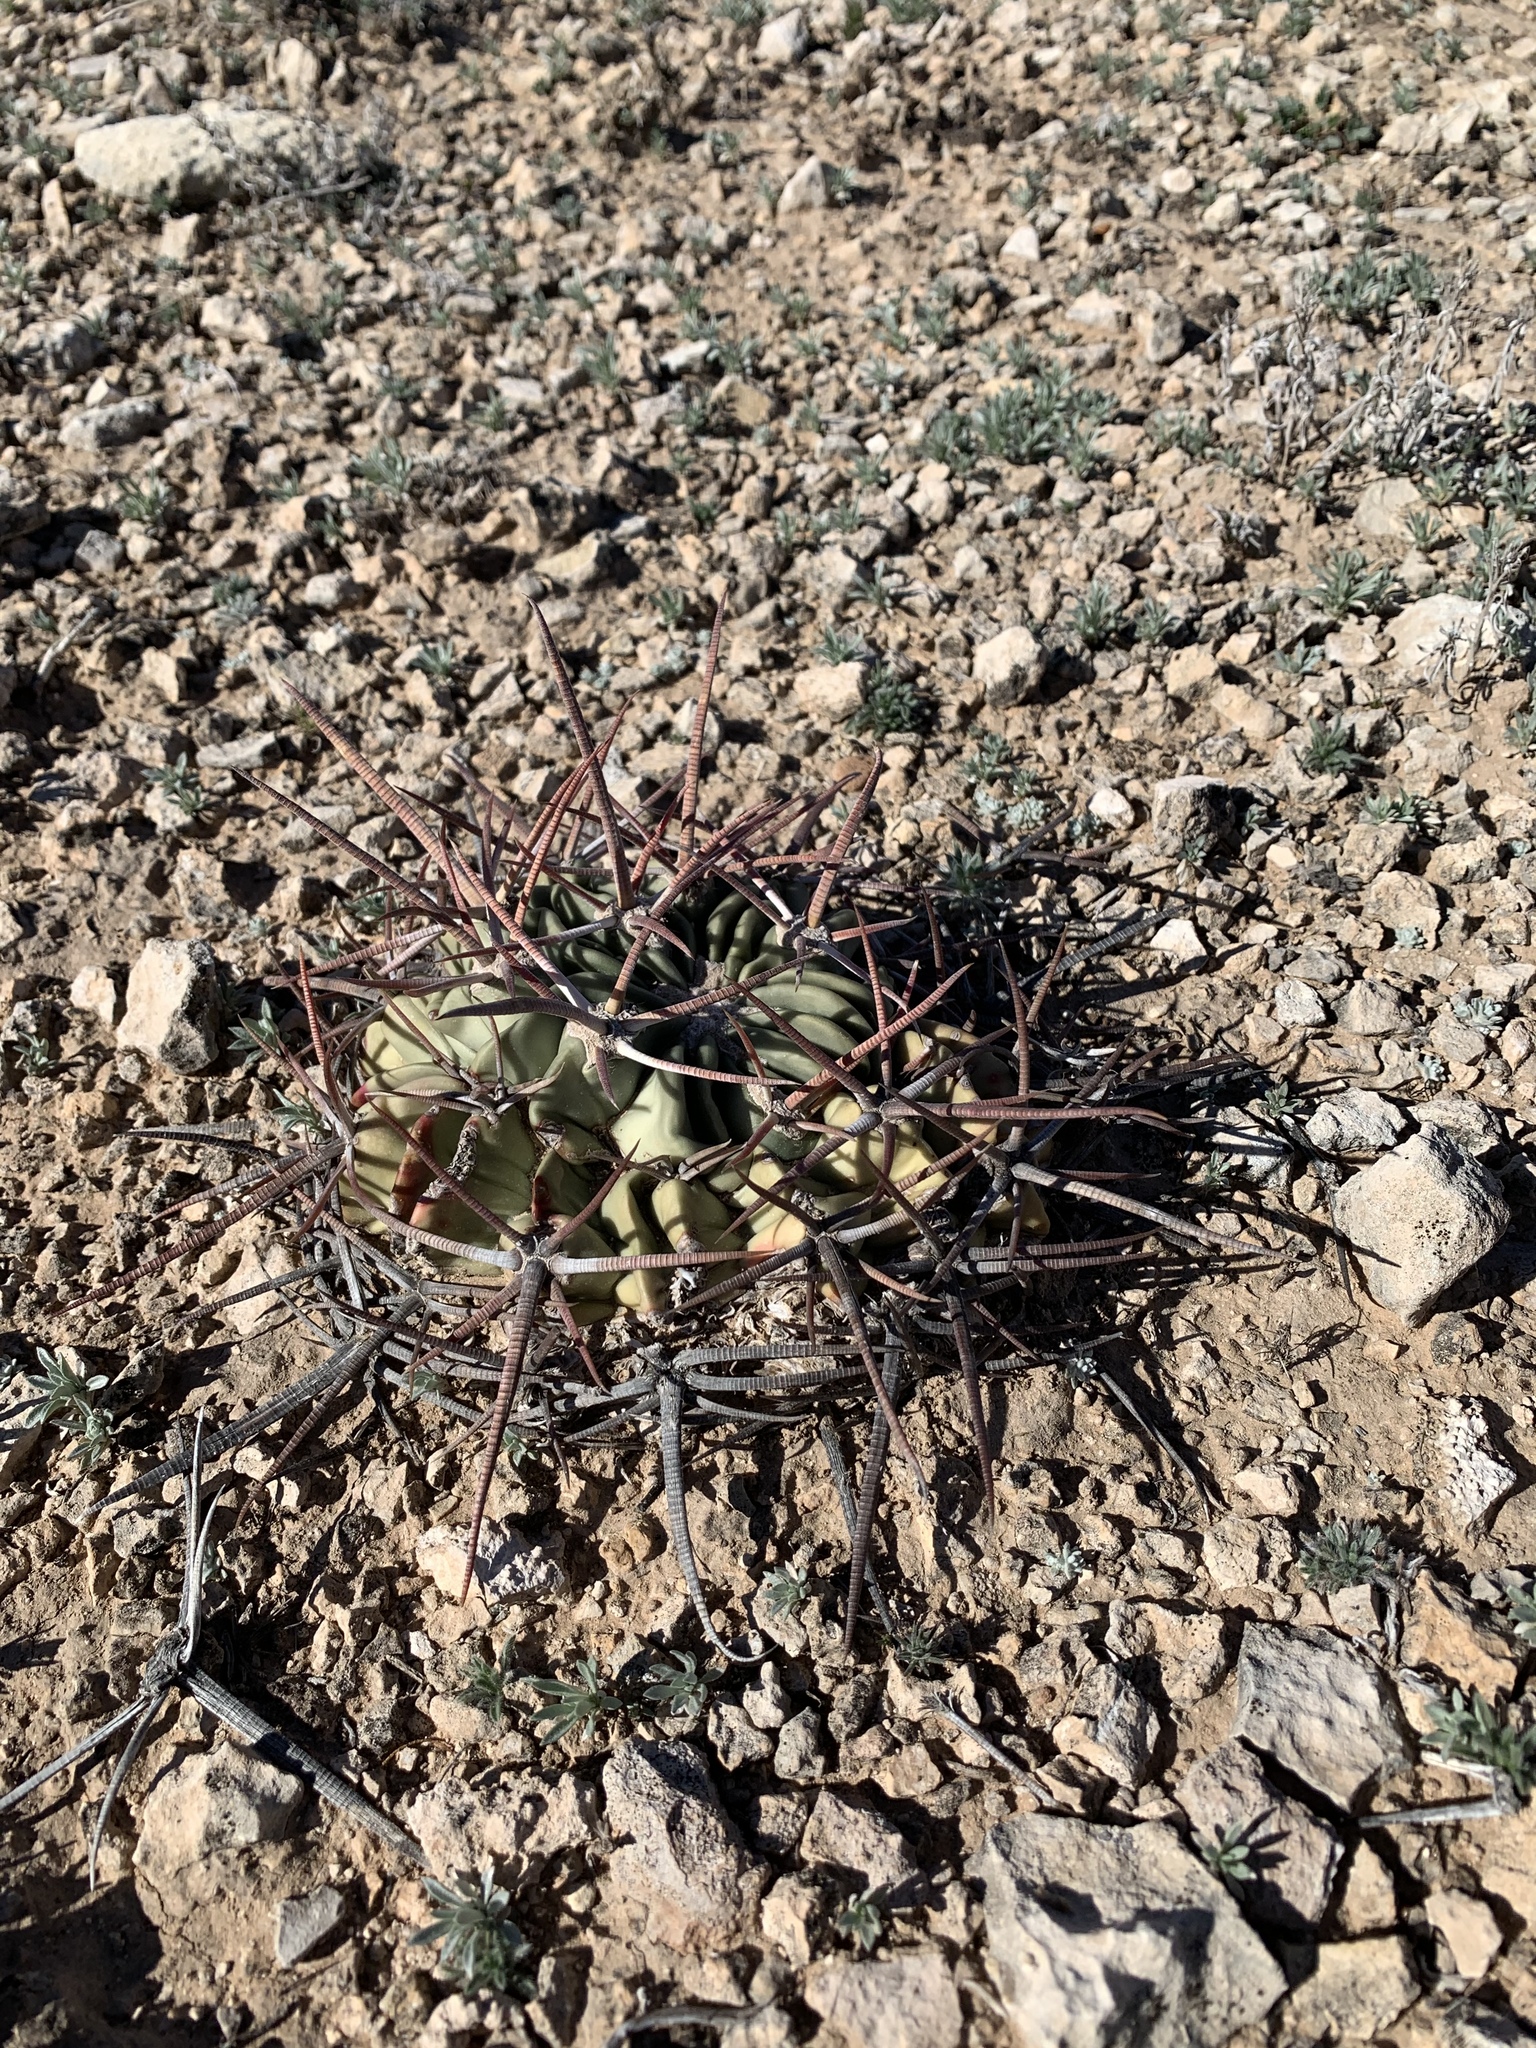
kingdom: Plantae
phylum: Tracheophyta
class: Magnoliopsida
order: Caryophyllales
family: Cactaceae
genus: Echinocactus
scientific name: Echinocactus texensis
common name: Devil's pincushion
